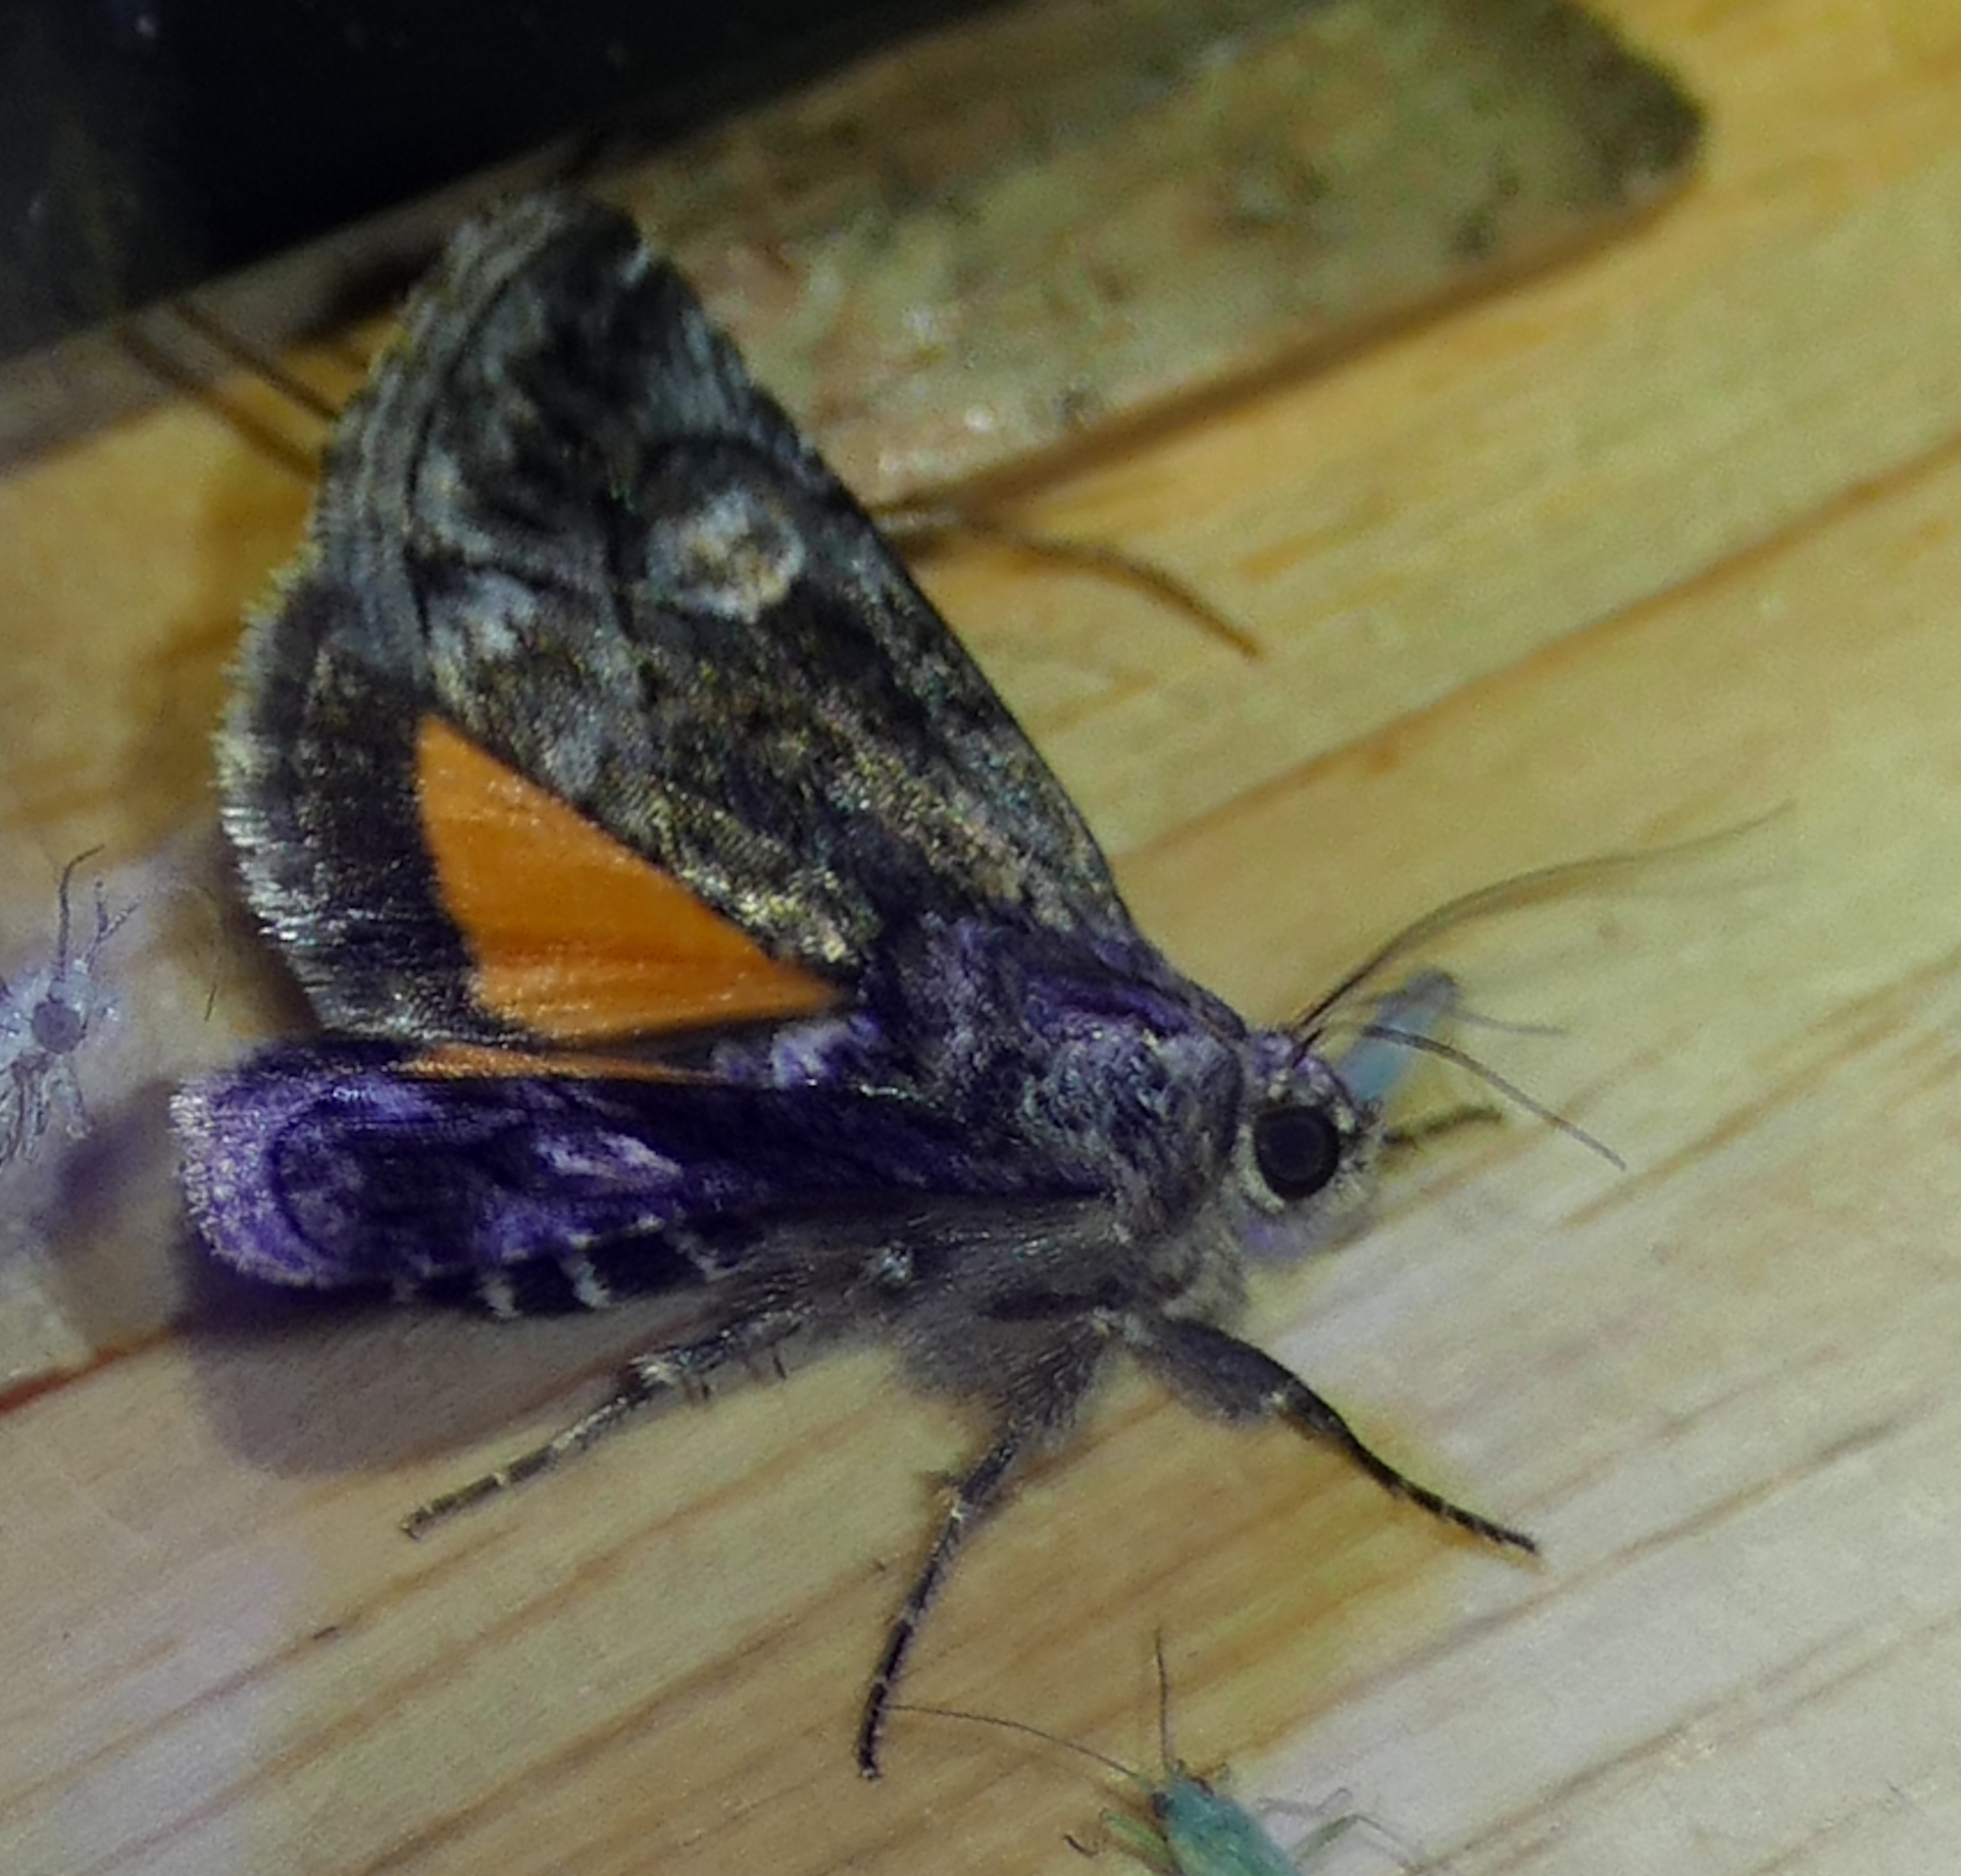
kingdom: Animalia
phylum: Arthropoda
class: Insecta
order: Lepidoptera
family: Noctuidae
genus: Copanarta
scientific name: Copanarta aurea
